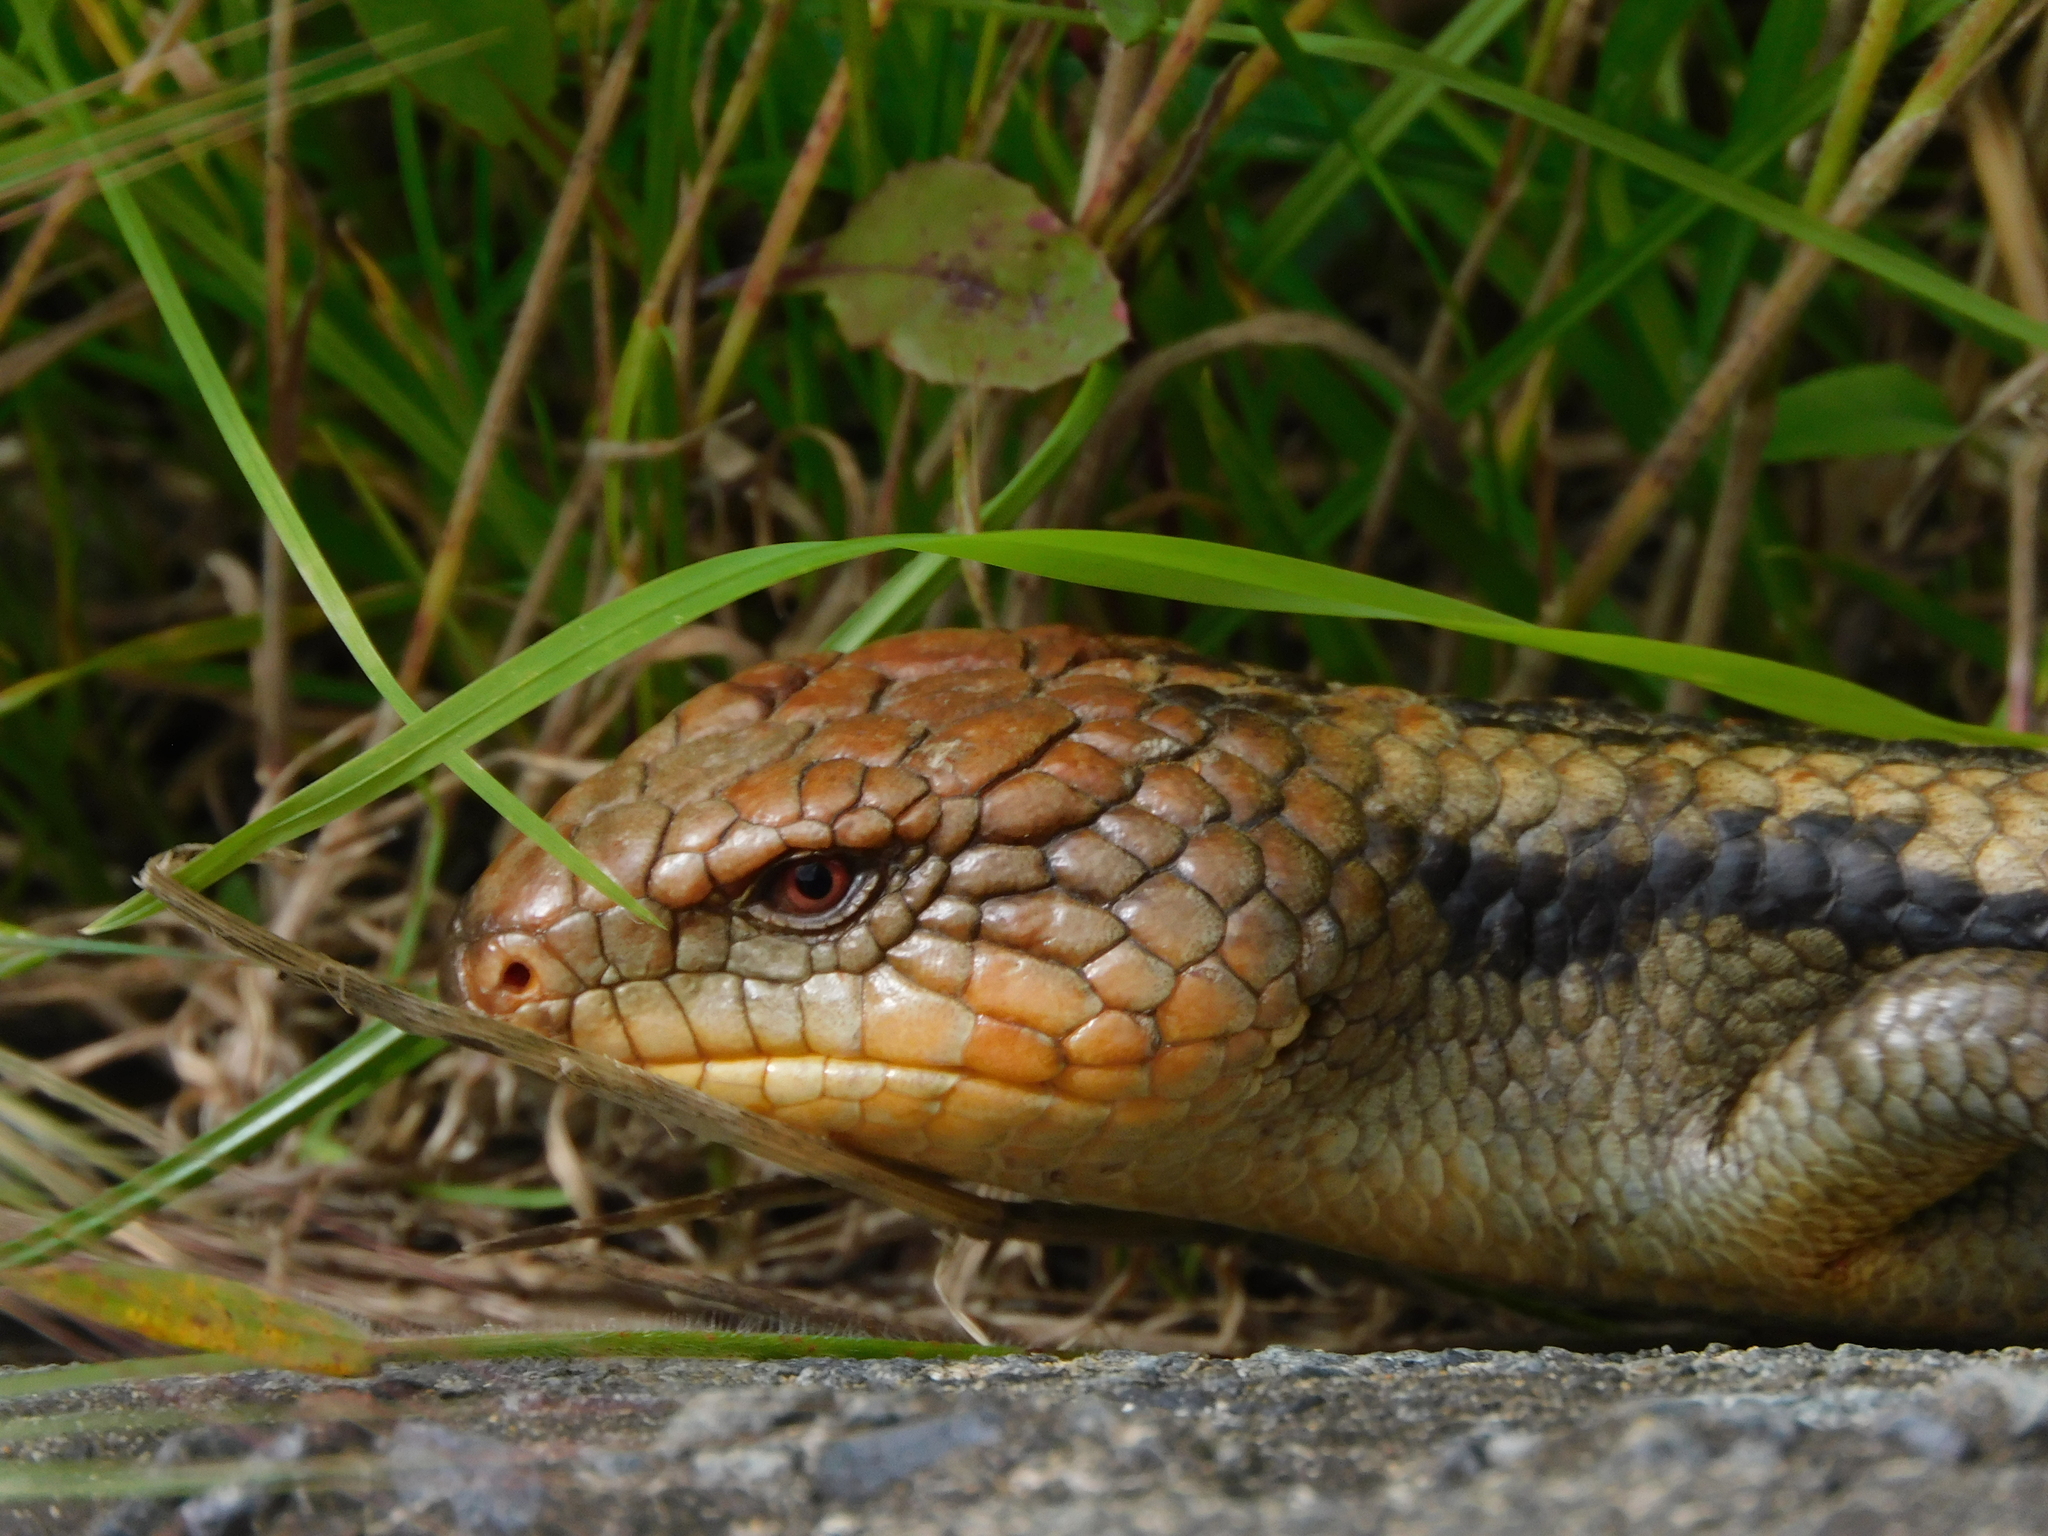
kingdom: Animalia
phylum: Chordata
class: Squamata
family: Scincidae
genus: Tiliqua
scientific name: Tiliqua nigrolutea
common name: Blotched blue-tongued lizard
